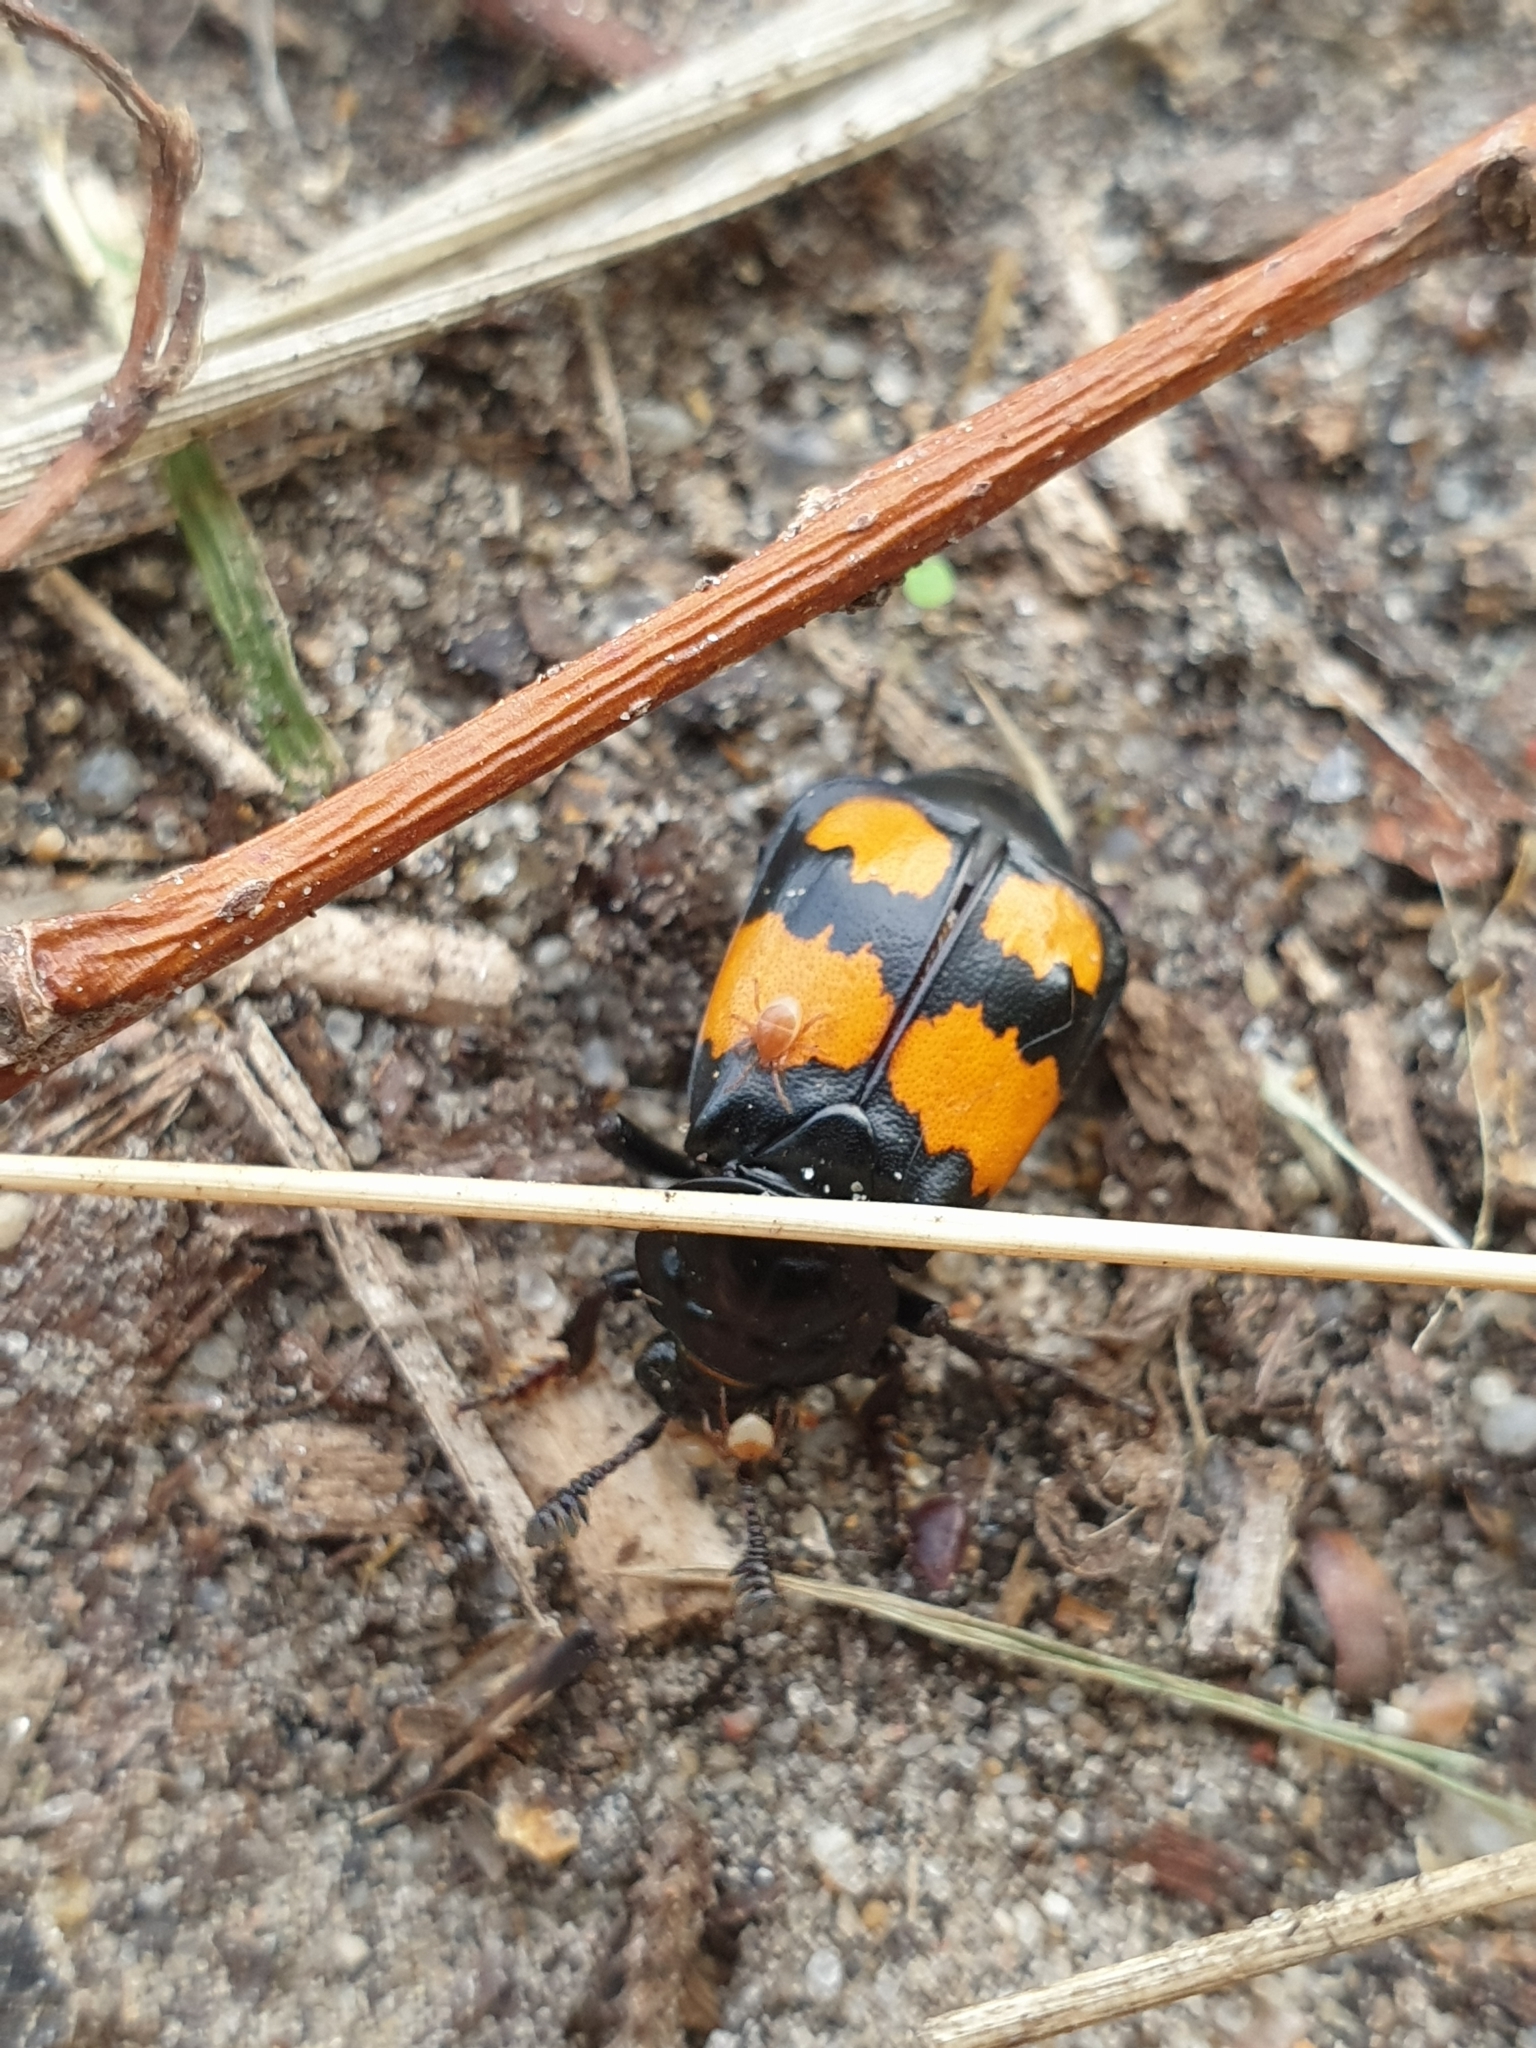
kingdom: Animalia
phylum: Arthropoda
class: Insecta
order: Coleoptera
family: Staphylinidae
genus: Nicrophorus
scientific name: Nicrophorus vespilloides
